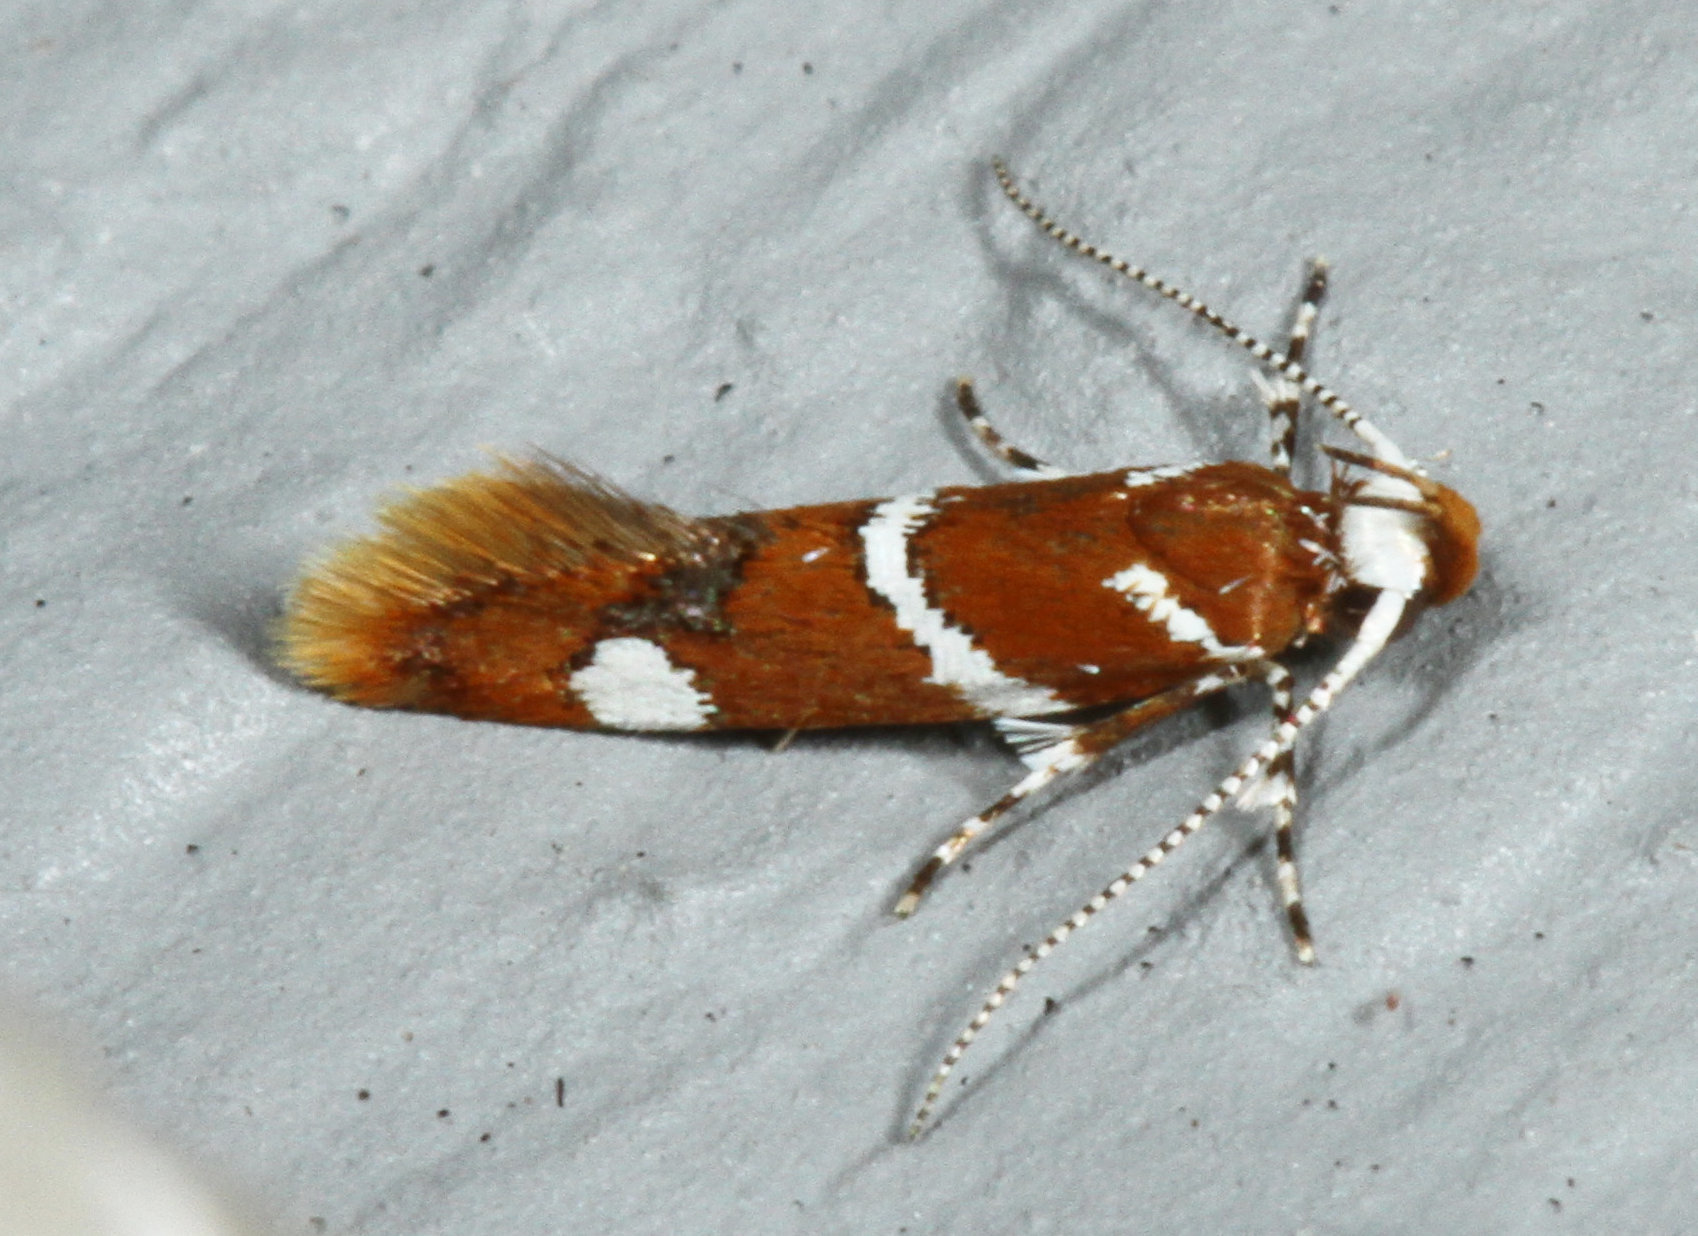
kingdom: Animalia
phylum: Arthropoda
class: Insecta
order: Lepidoptera
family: Oecophoridae
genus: Promalactis
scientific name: Promalactis suzukiella
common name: Moth
